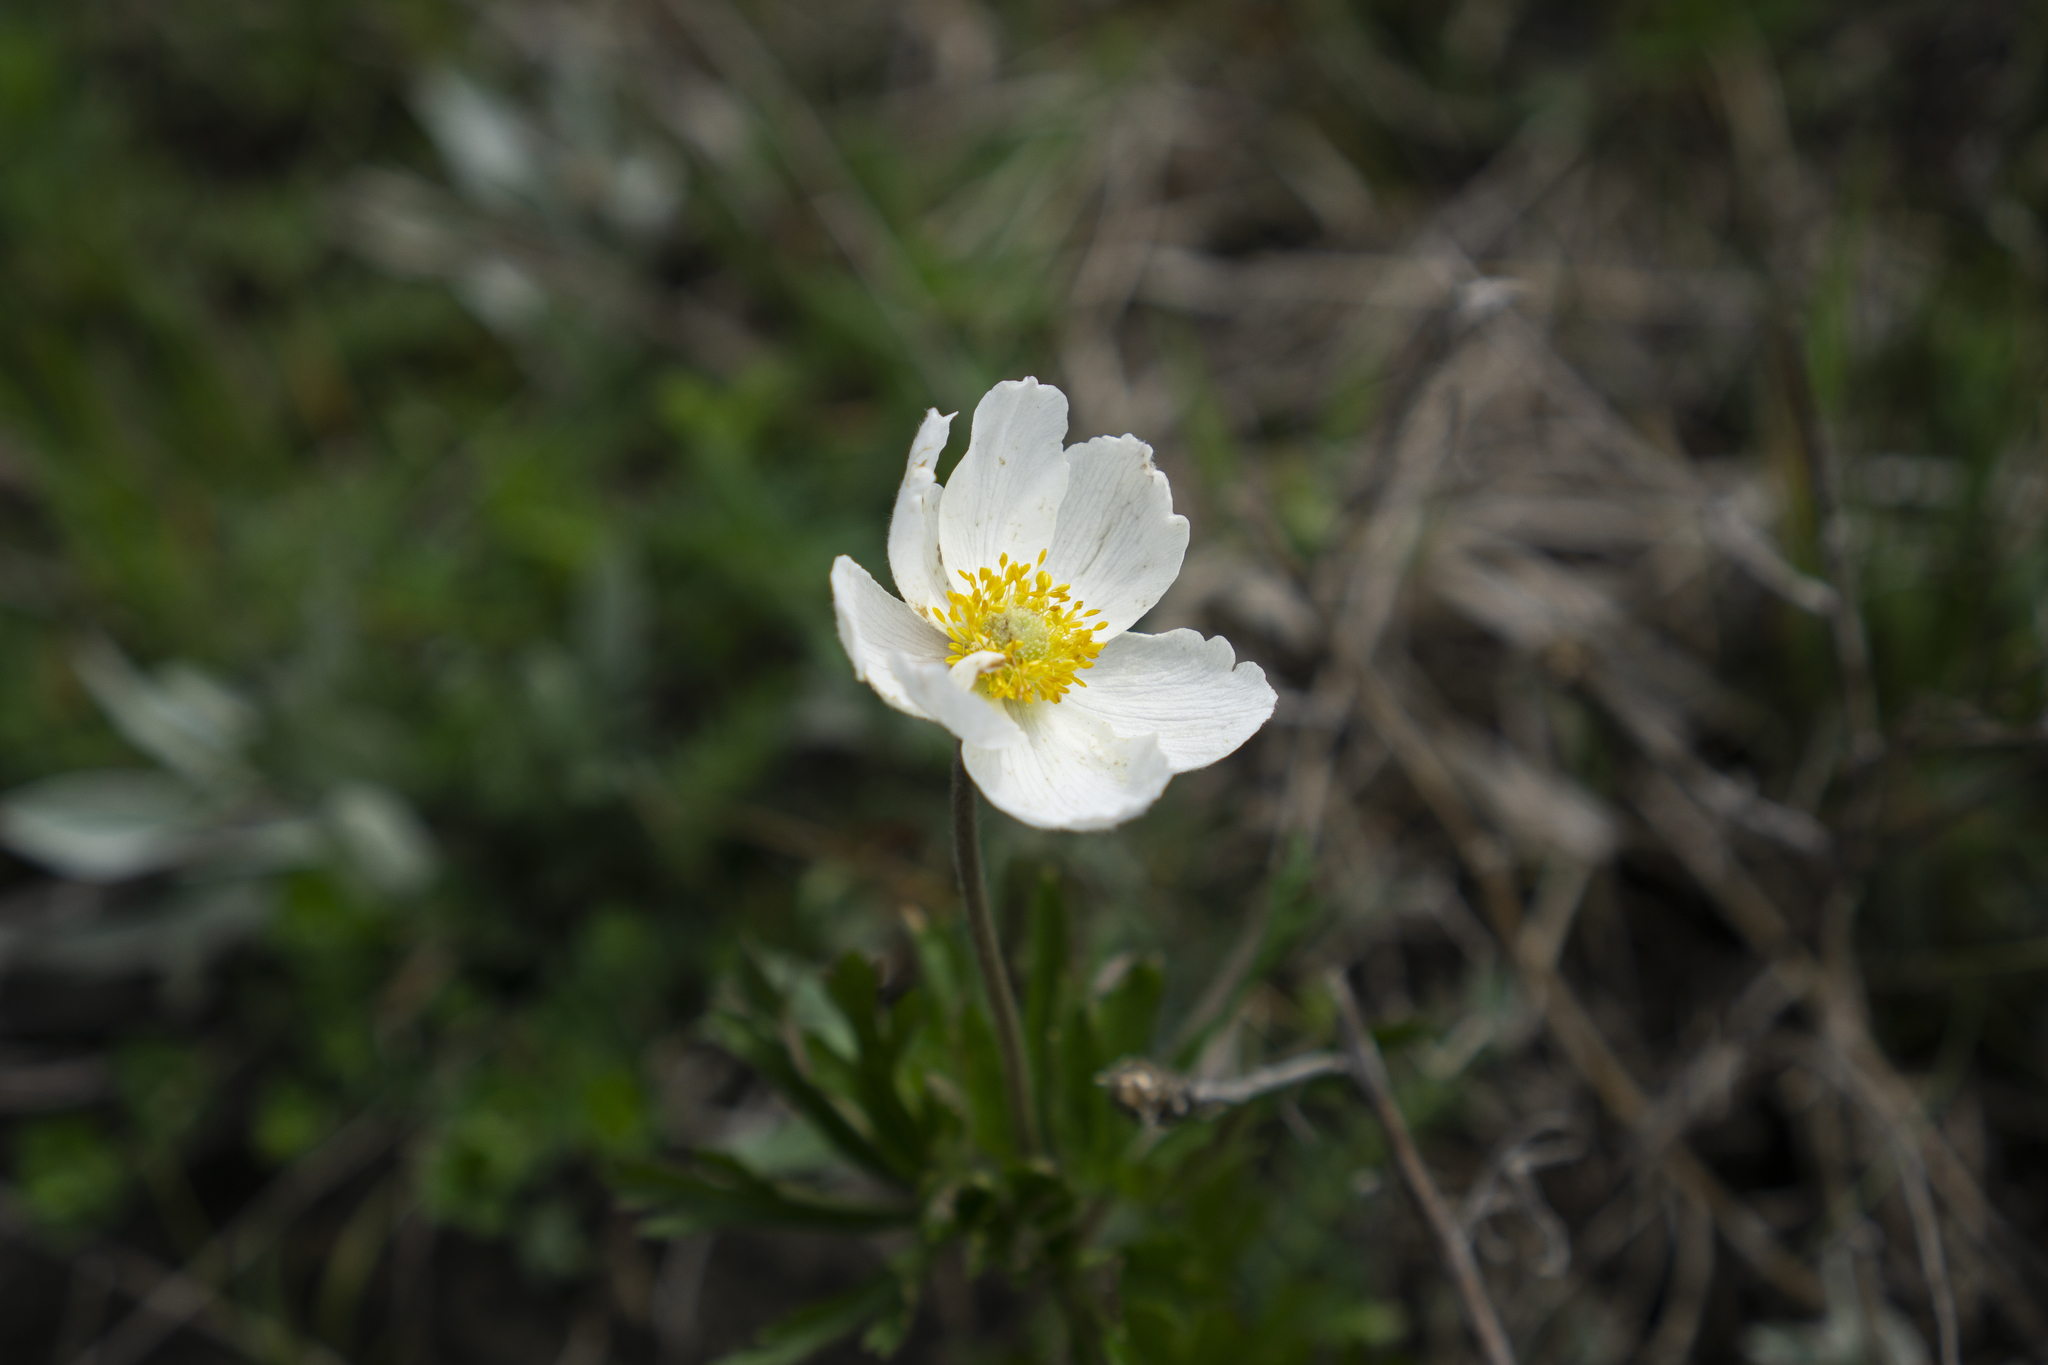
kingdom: Plantae
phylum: Tracheophyta
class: Magnoliopsida
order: Ranunculales
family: Ranunculaceae
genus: Anemone
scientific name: Anemone sylvestris
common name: Snowdrop anemone
